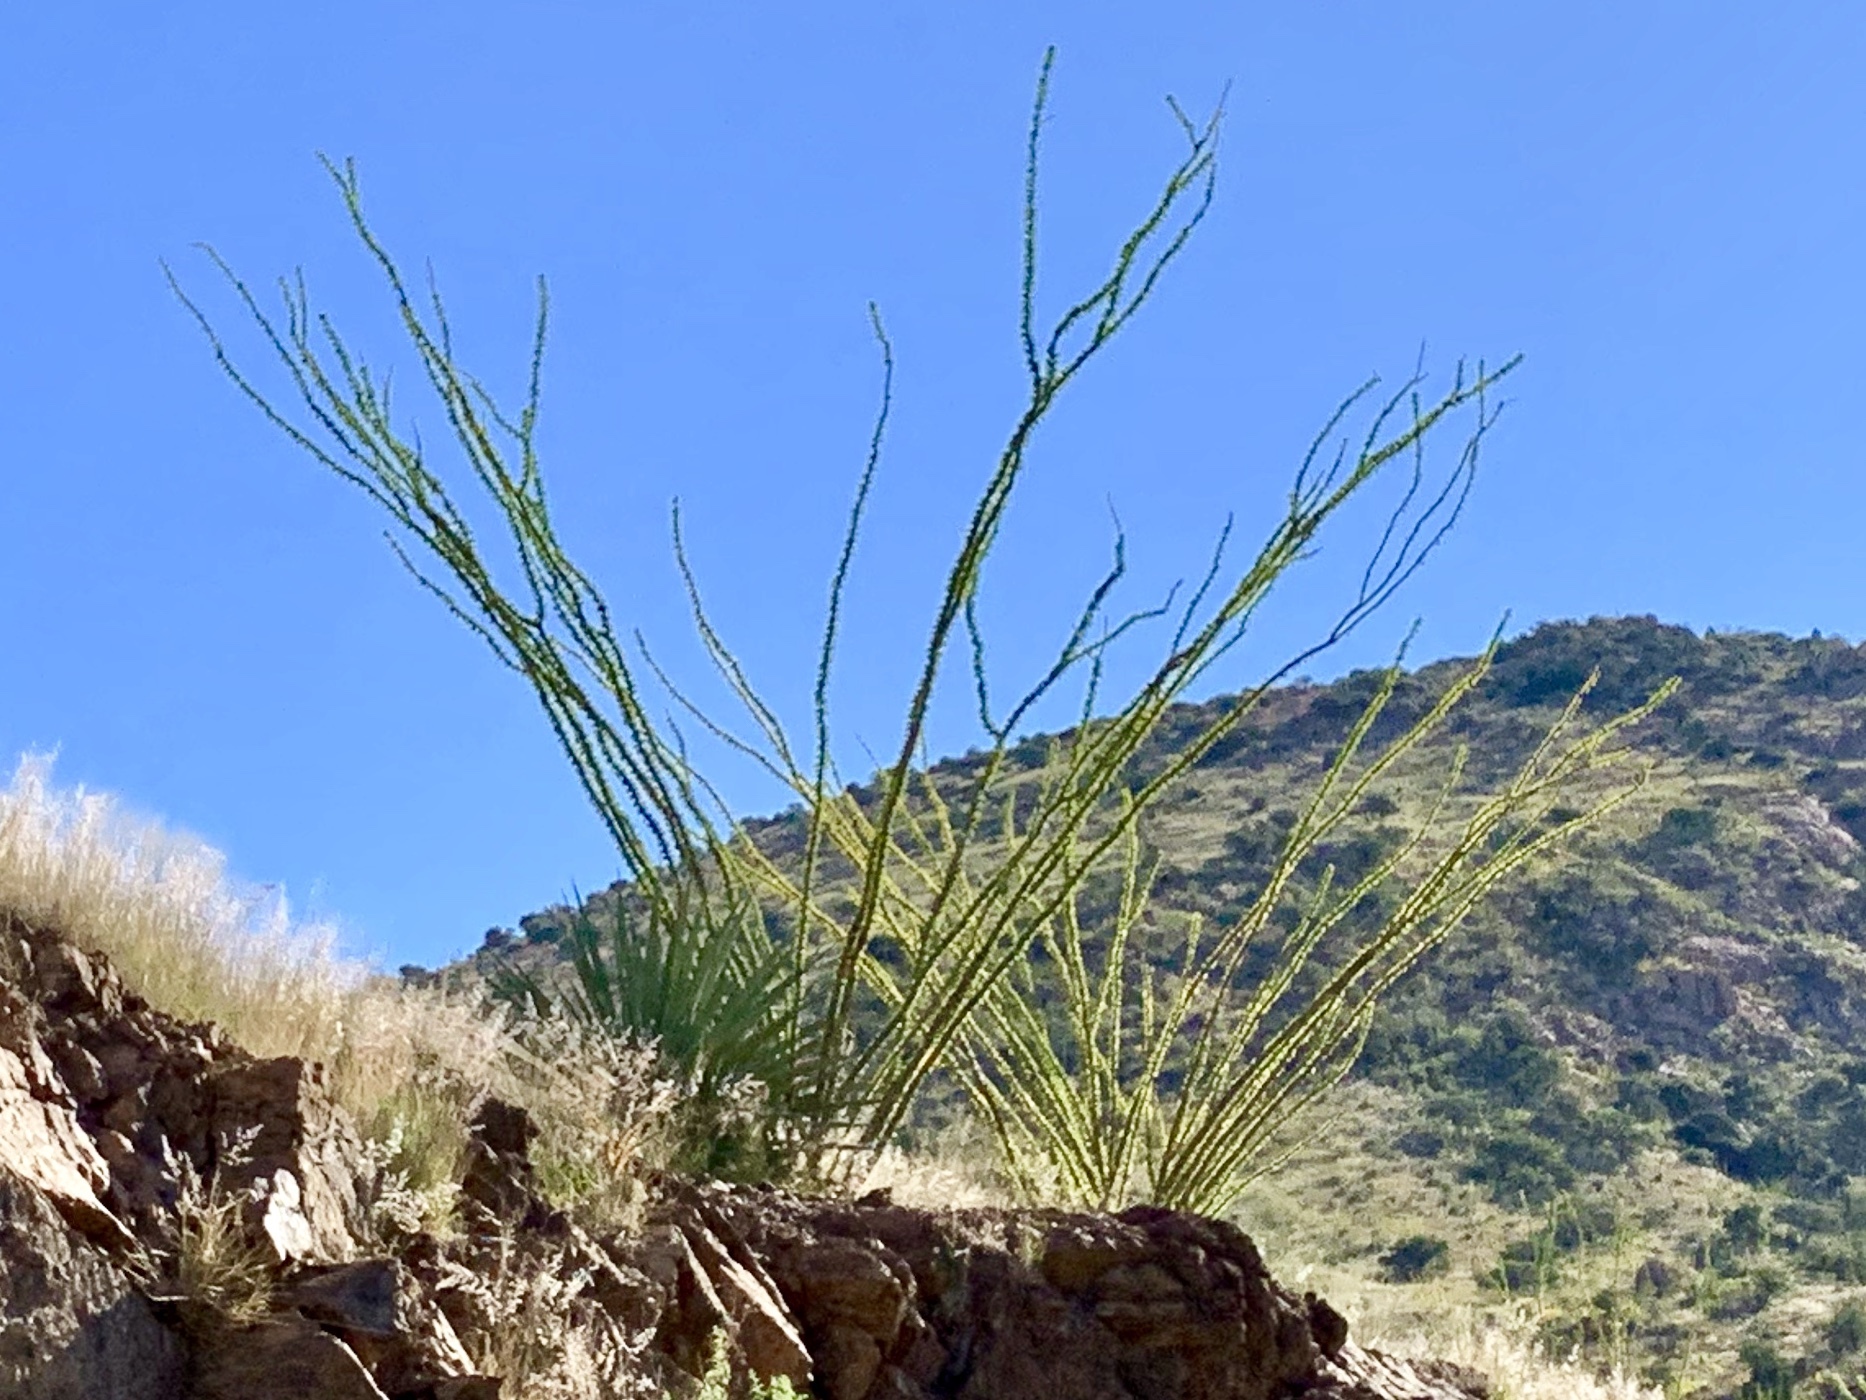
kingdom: Plantae
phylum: Tracheophyta
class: Magnoliopsida
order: Ericales
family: Fouquieriaceae
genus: Fouquieria
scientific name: Fouquieria splendens
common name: Vine-cactus
